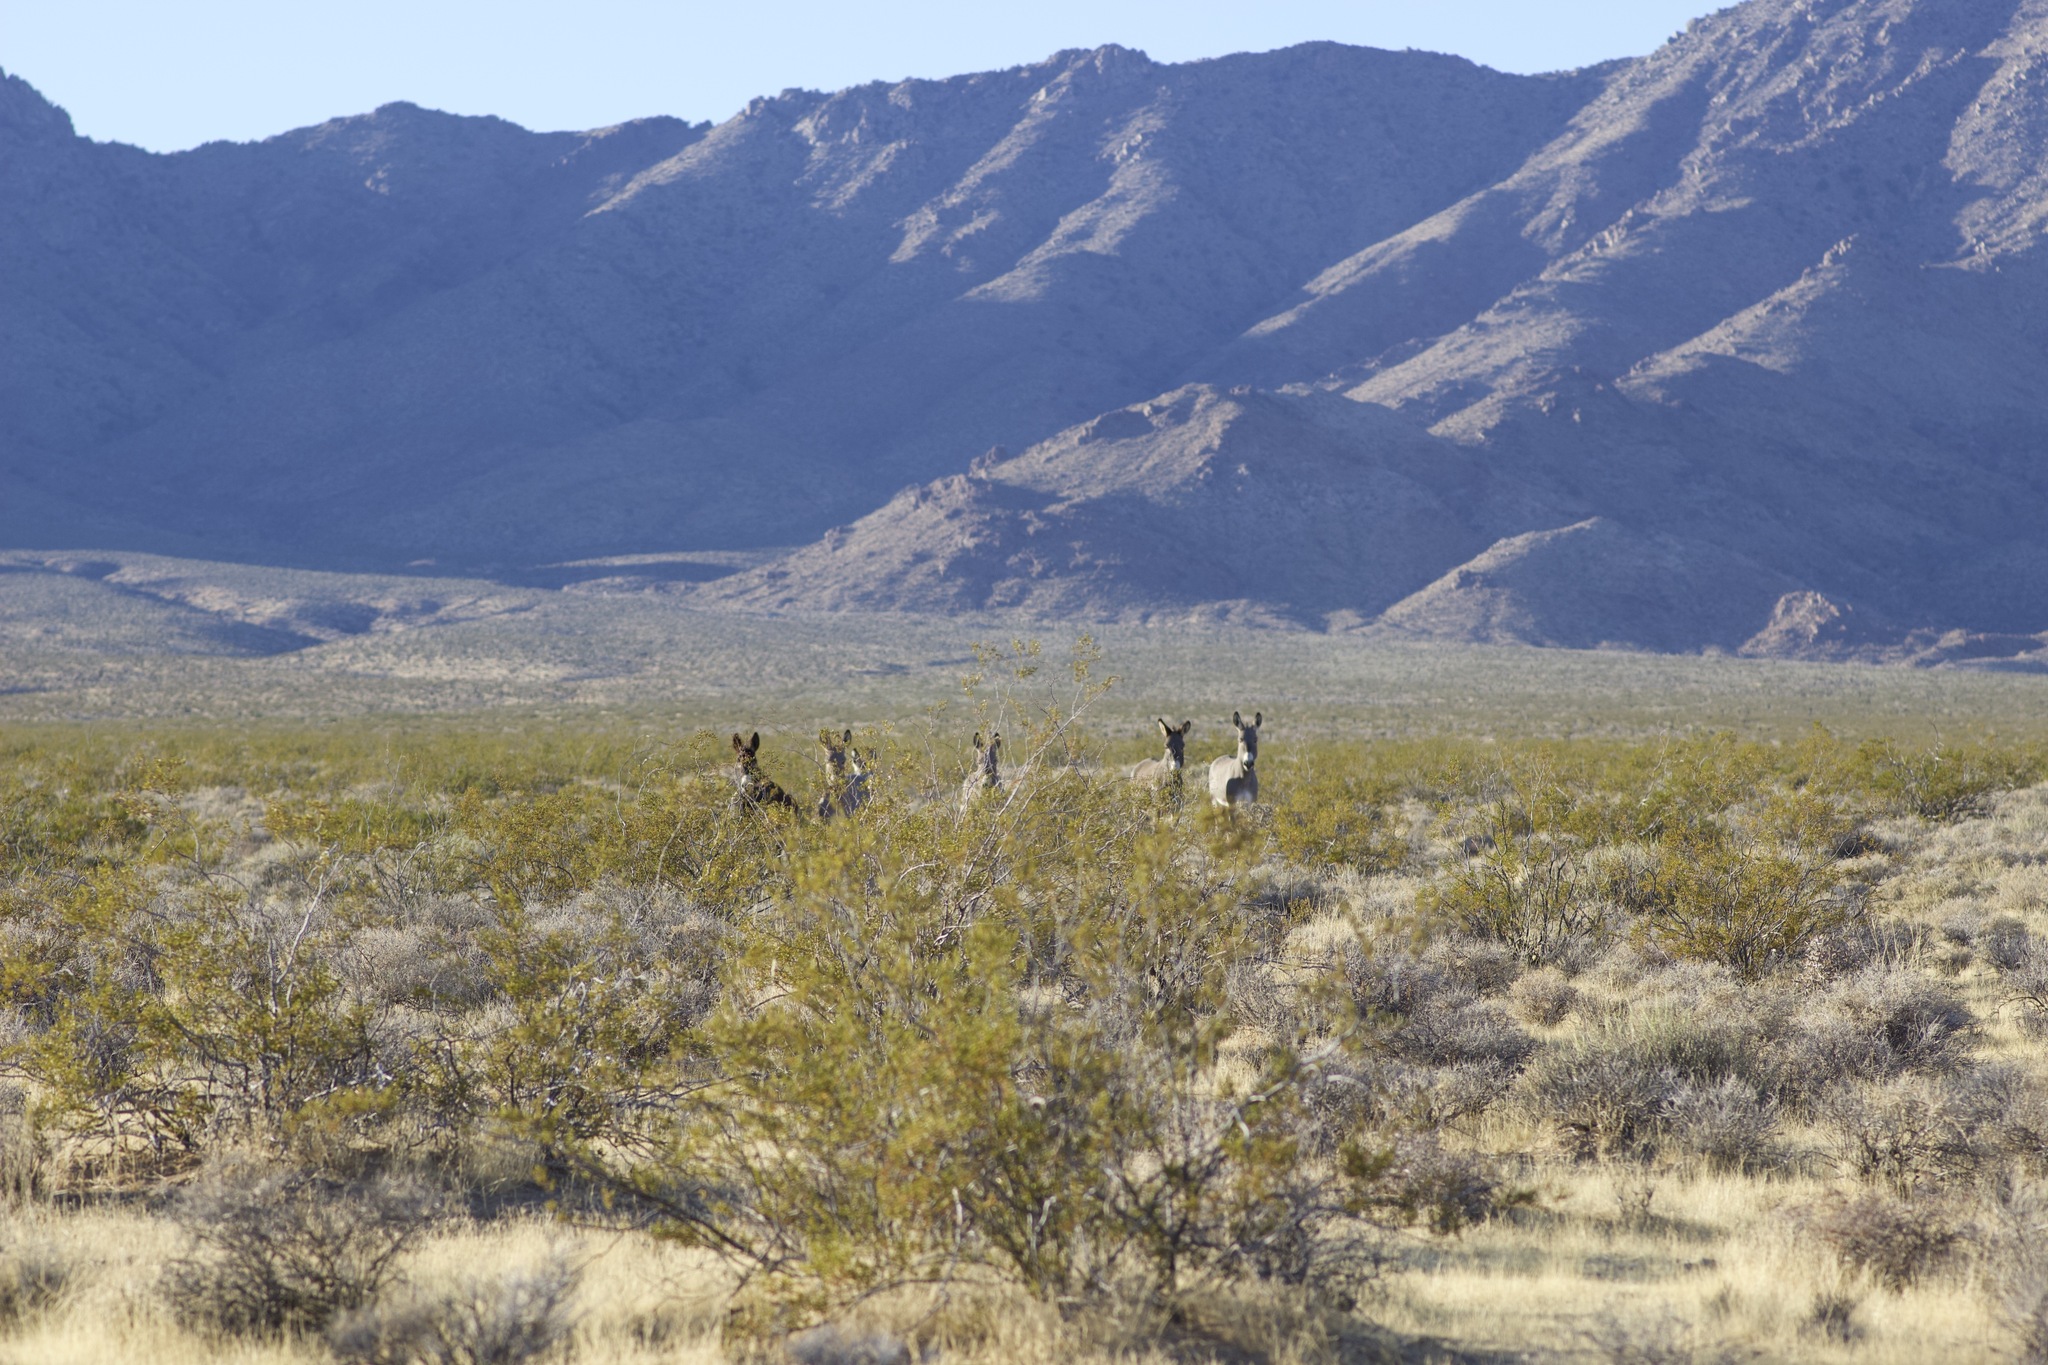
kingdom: Animalia
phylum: Chordata
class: Mammalia
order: Perissodactyla
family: Equidae
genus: Equus
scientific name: Equus asinus
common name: Ass
